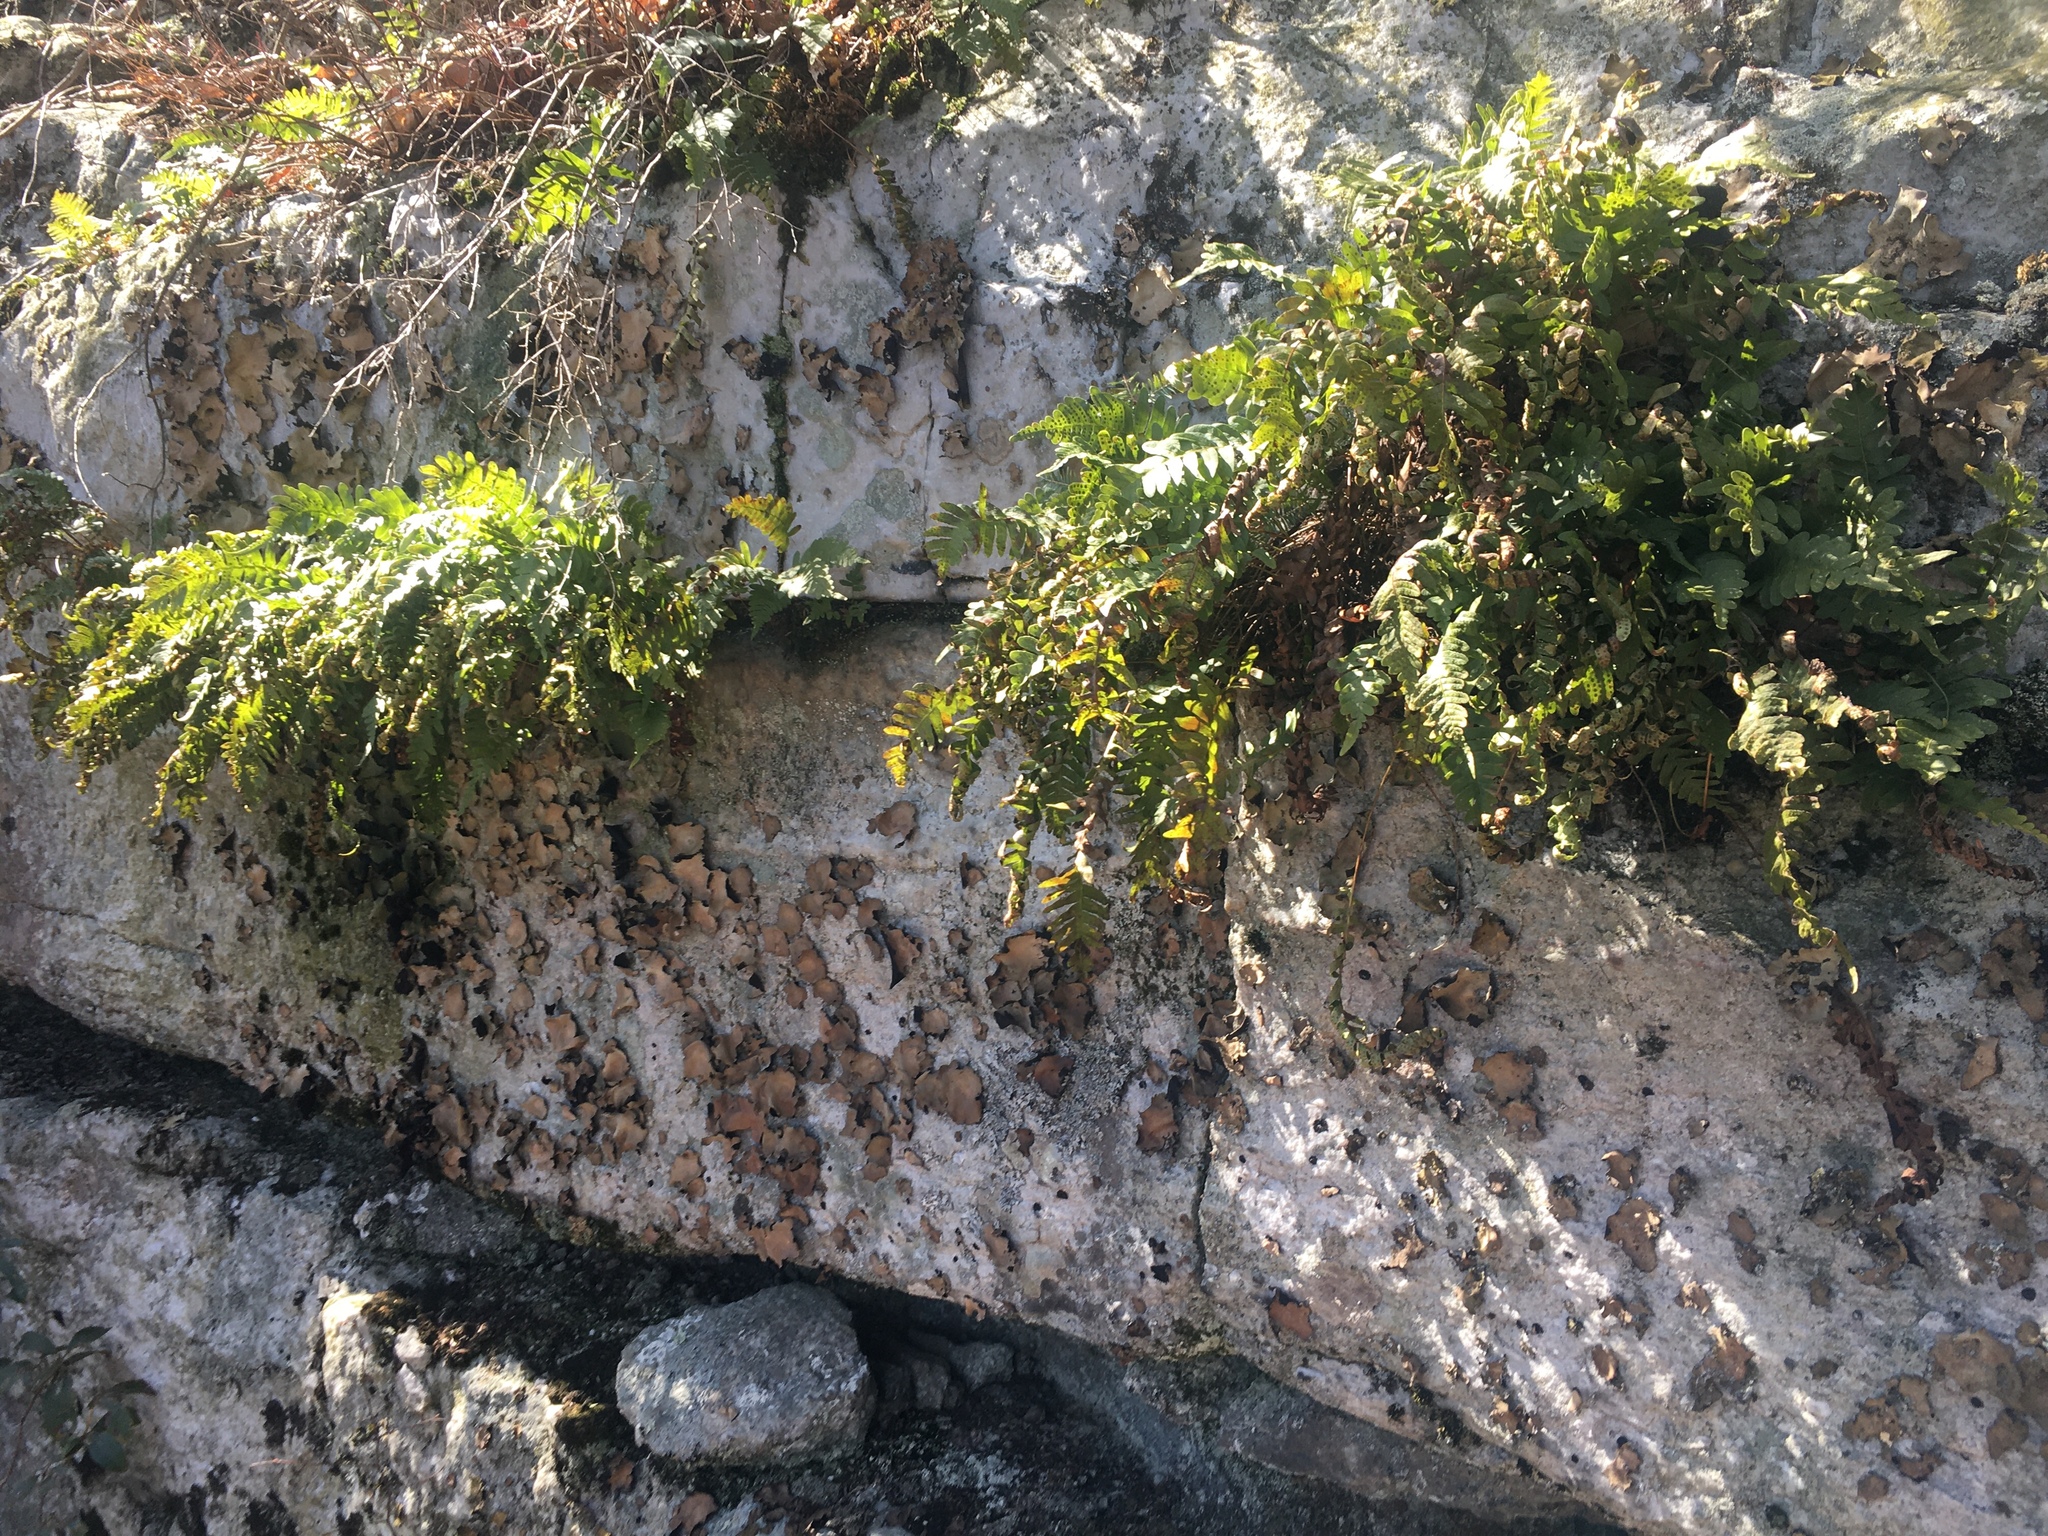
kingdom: Plantae
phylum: Tracheophyta
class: Polypodiopsida
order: Polypodiales
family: Polypodiaceae
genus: Polypodium
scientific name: Polypodium virginianum
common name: American wall fern
